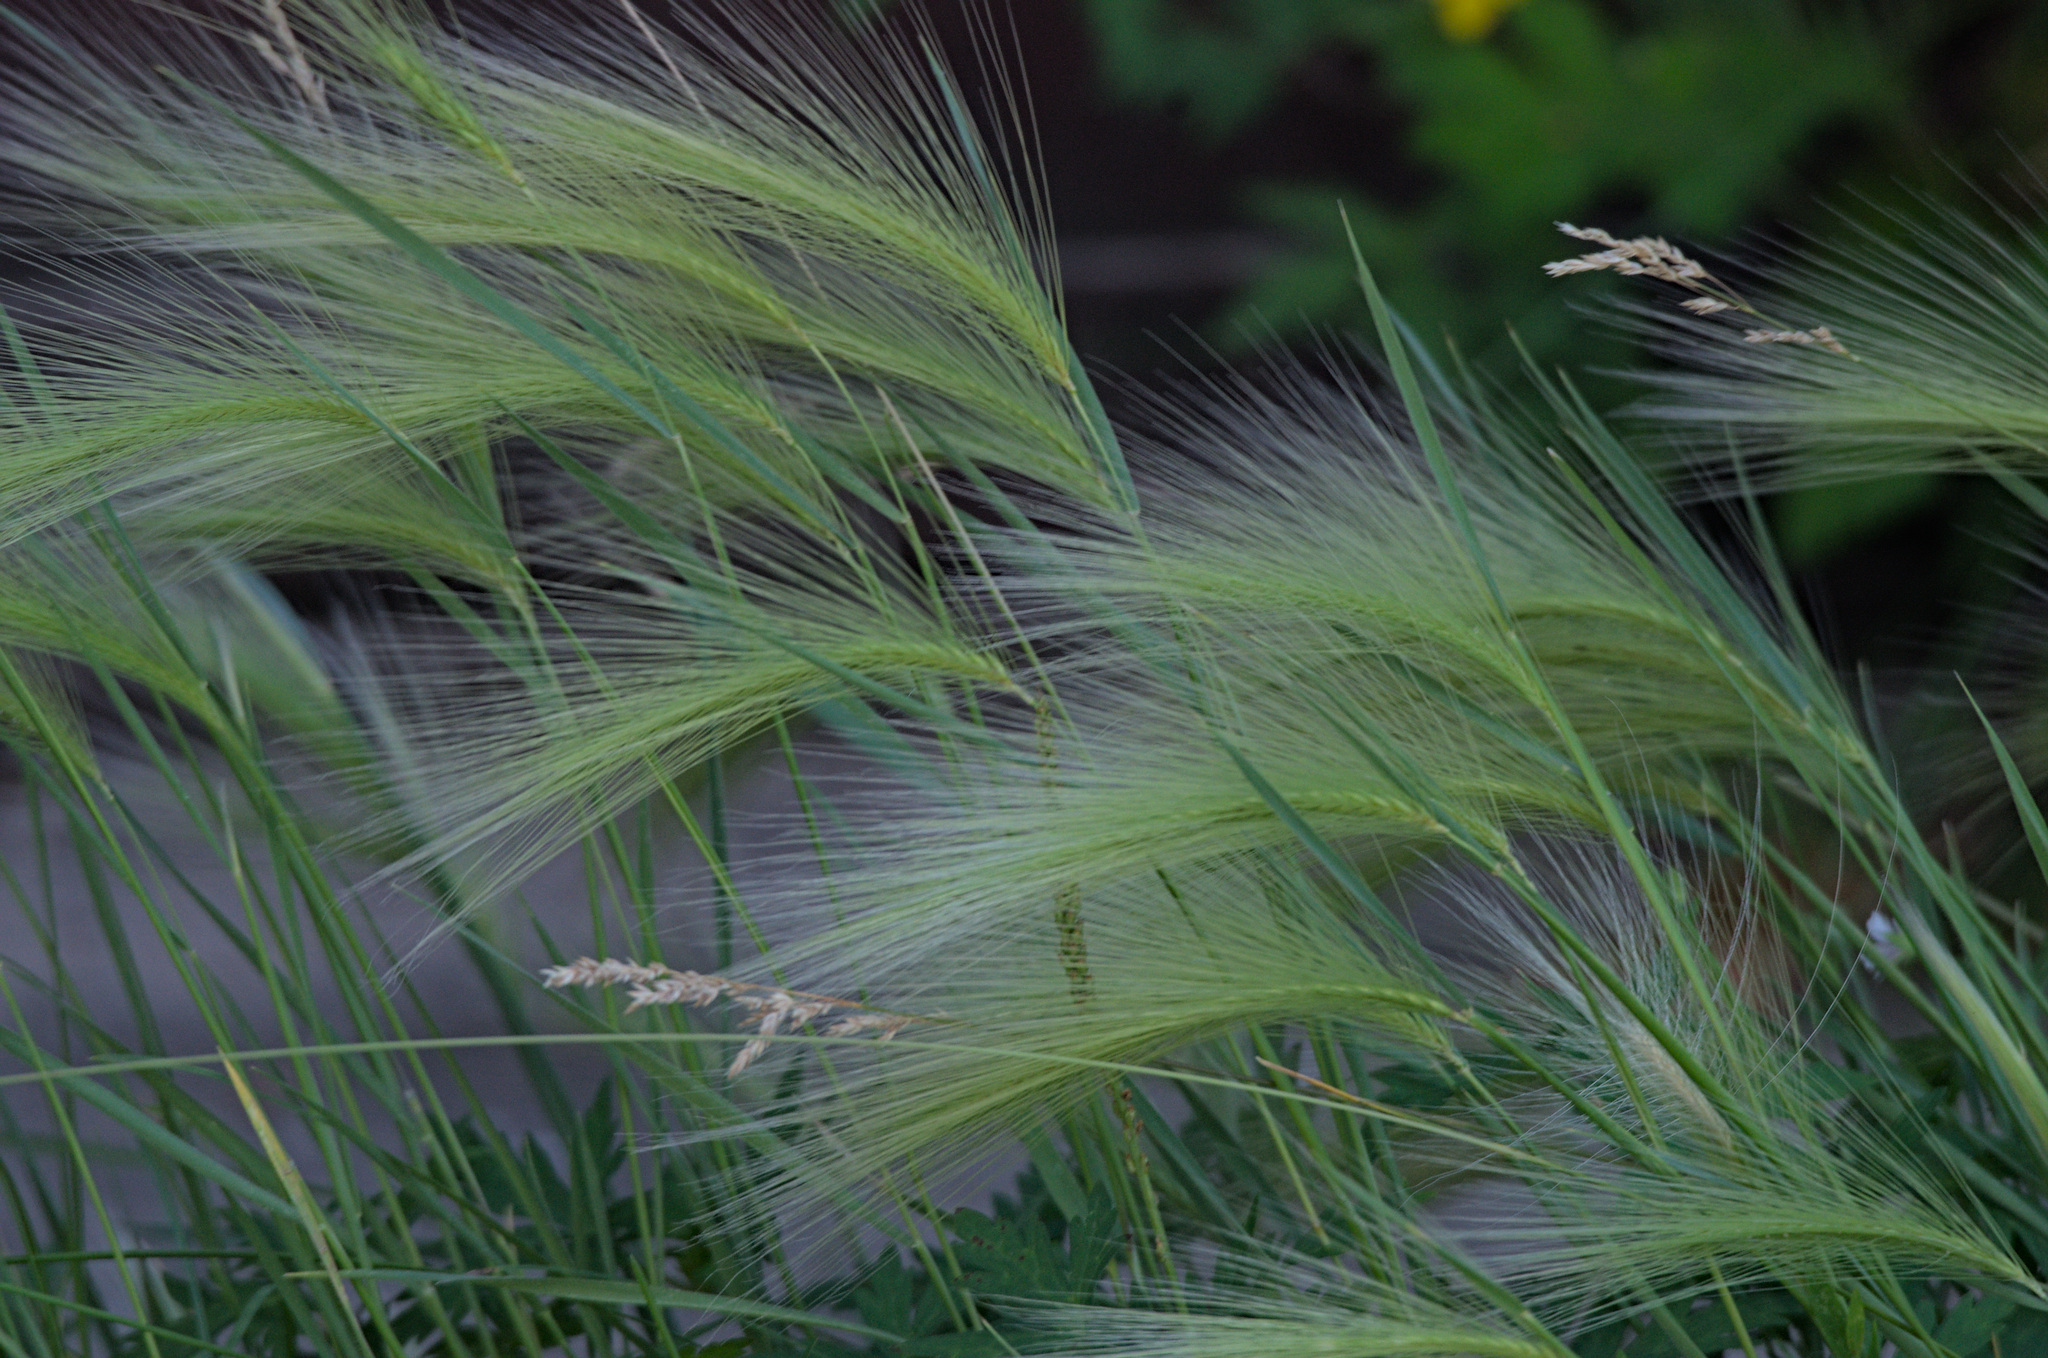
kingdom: Plantae
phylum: Tracheophyta
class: Liliopsida
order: Poales
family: Poaceae
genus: Hordeum
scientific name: Hordeum jubatum
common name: Foxtail barley
